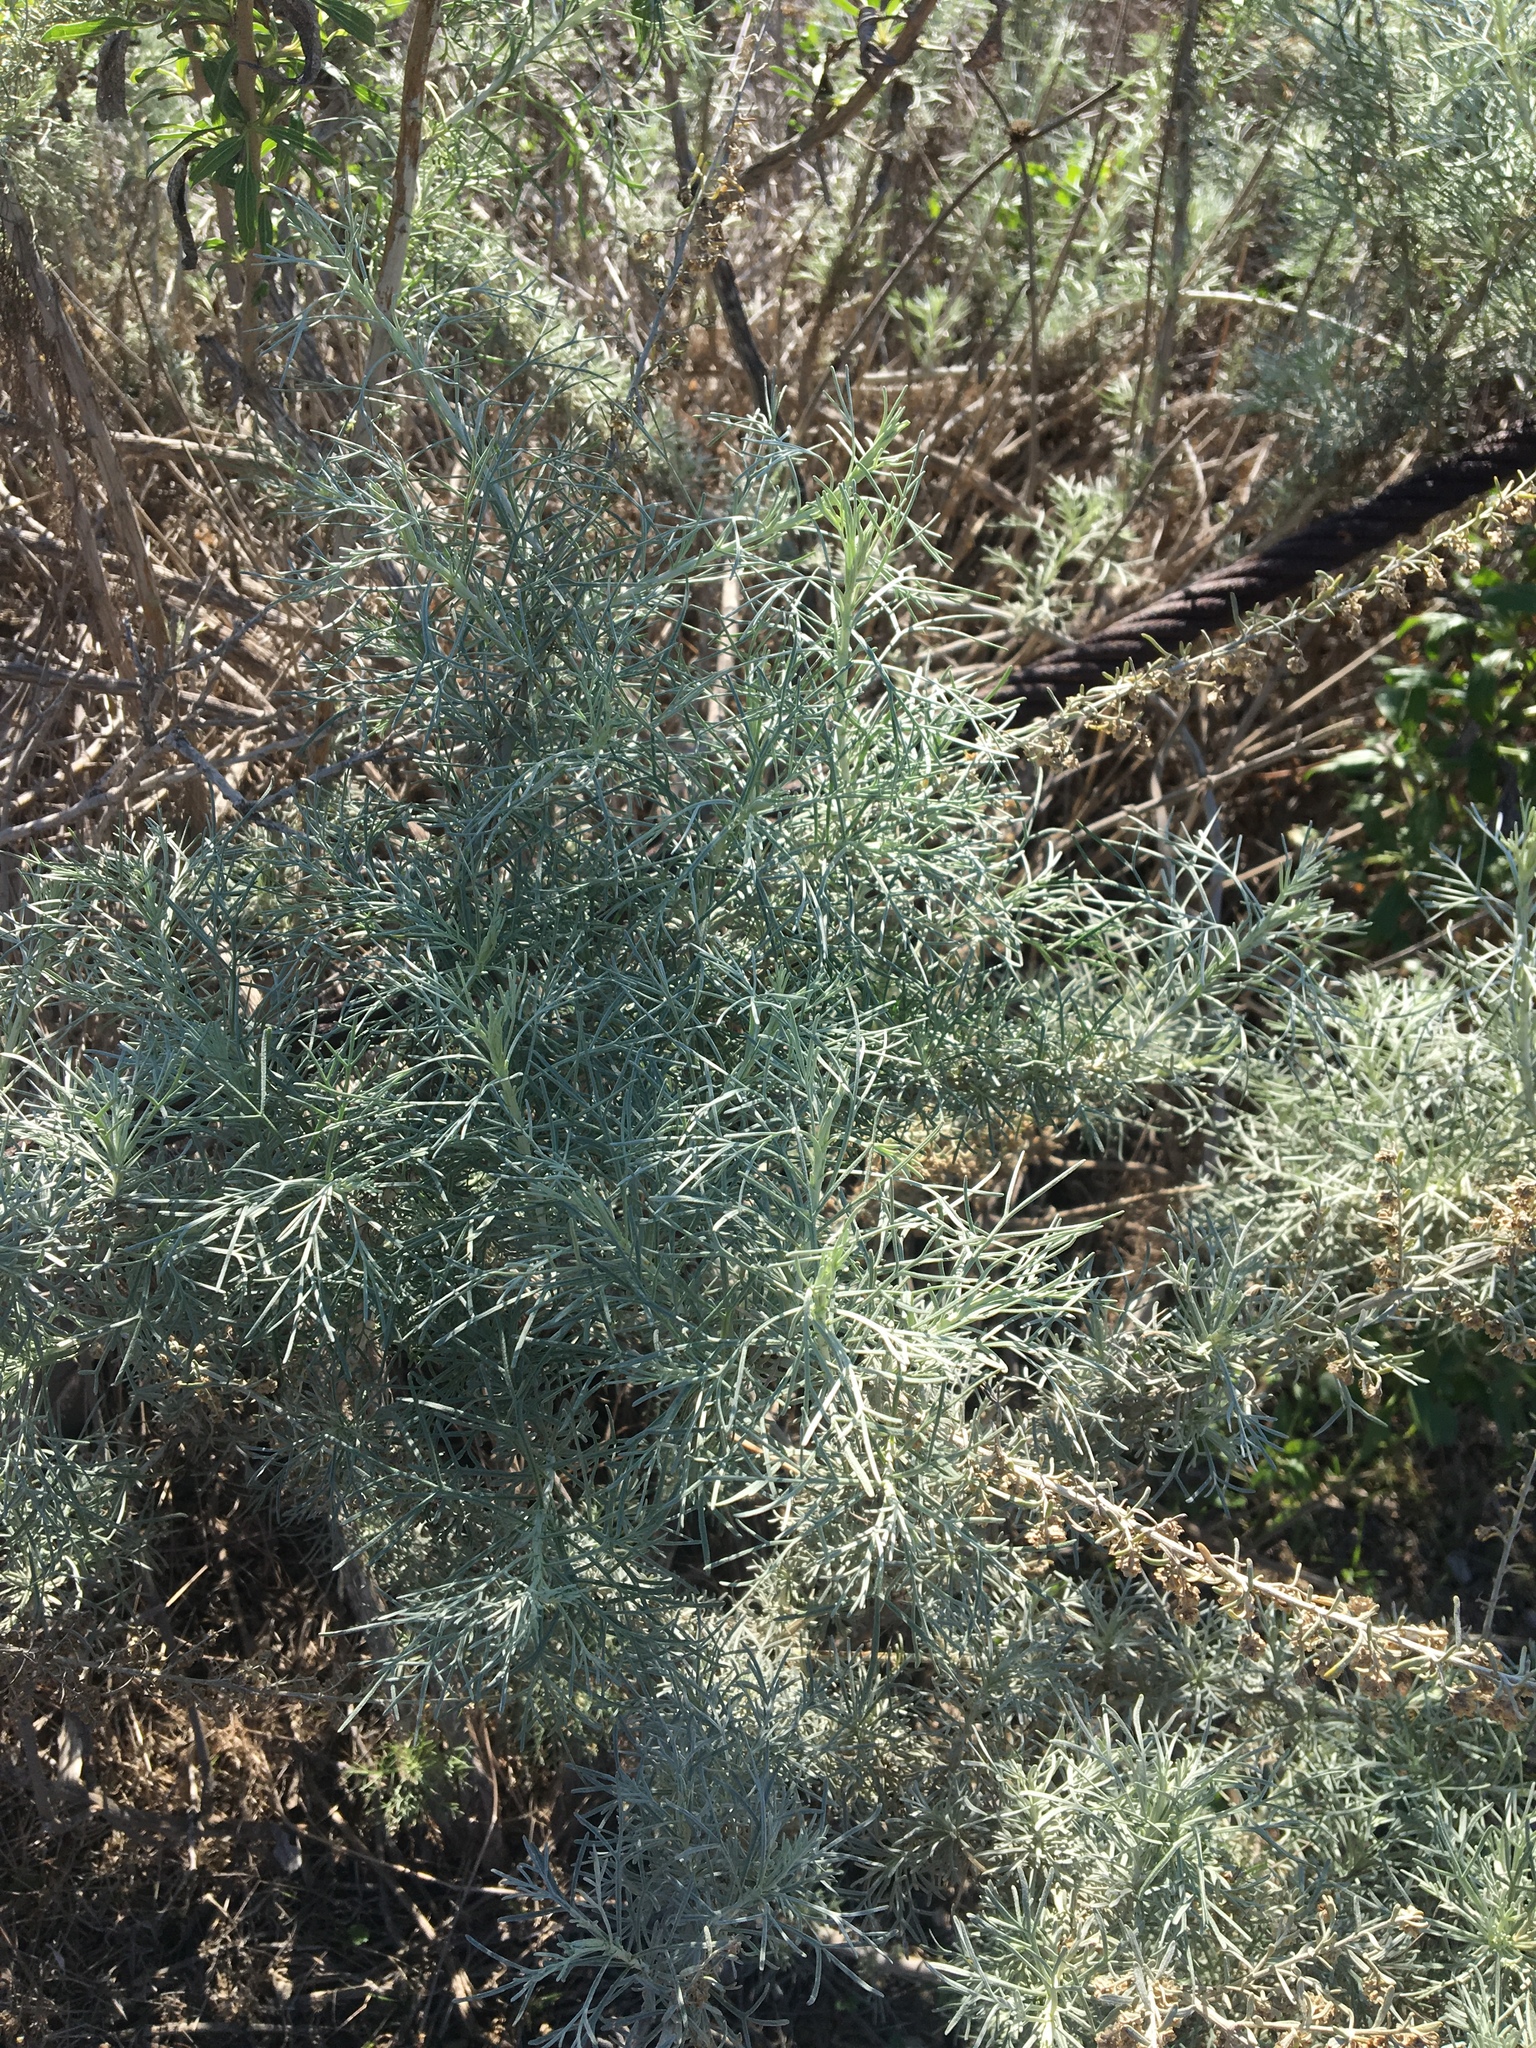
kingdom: Plantae
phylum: Tracheophyta
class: Magnoliopsida
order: Asterales
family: Asteraceae
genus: Artemisia
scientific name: Artemisia californica
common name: California sagebrush
